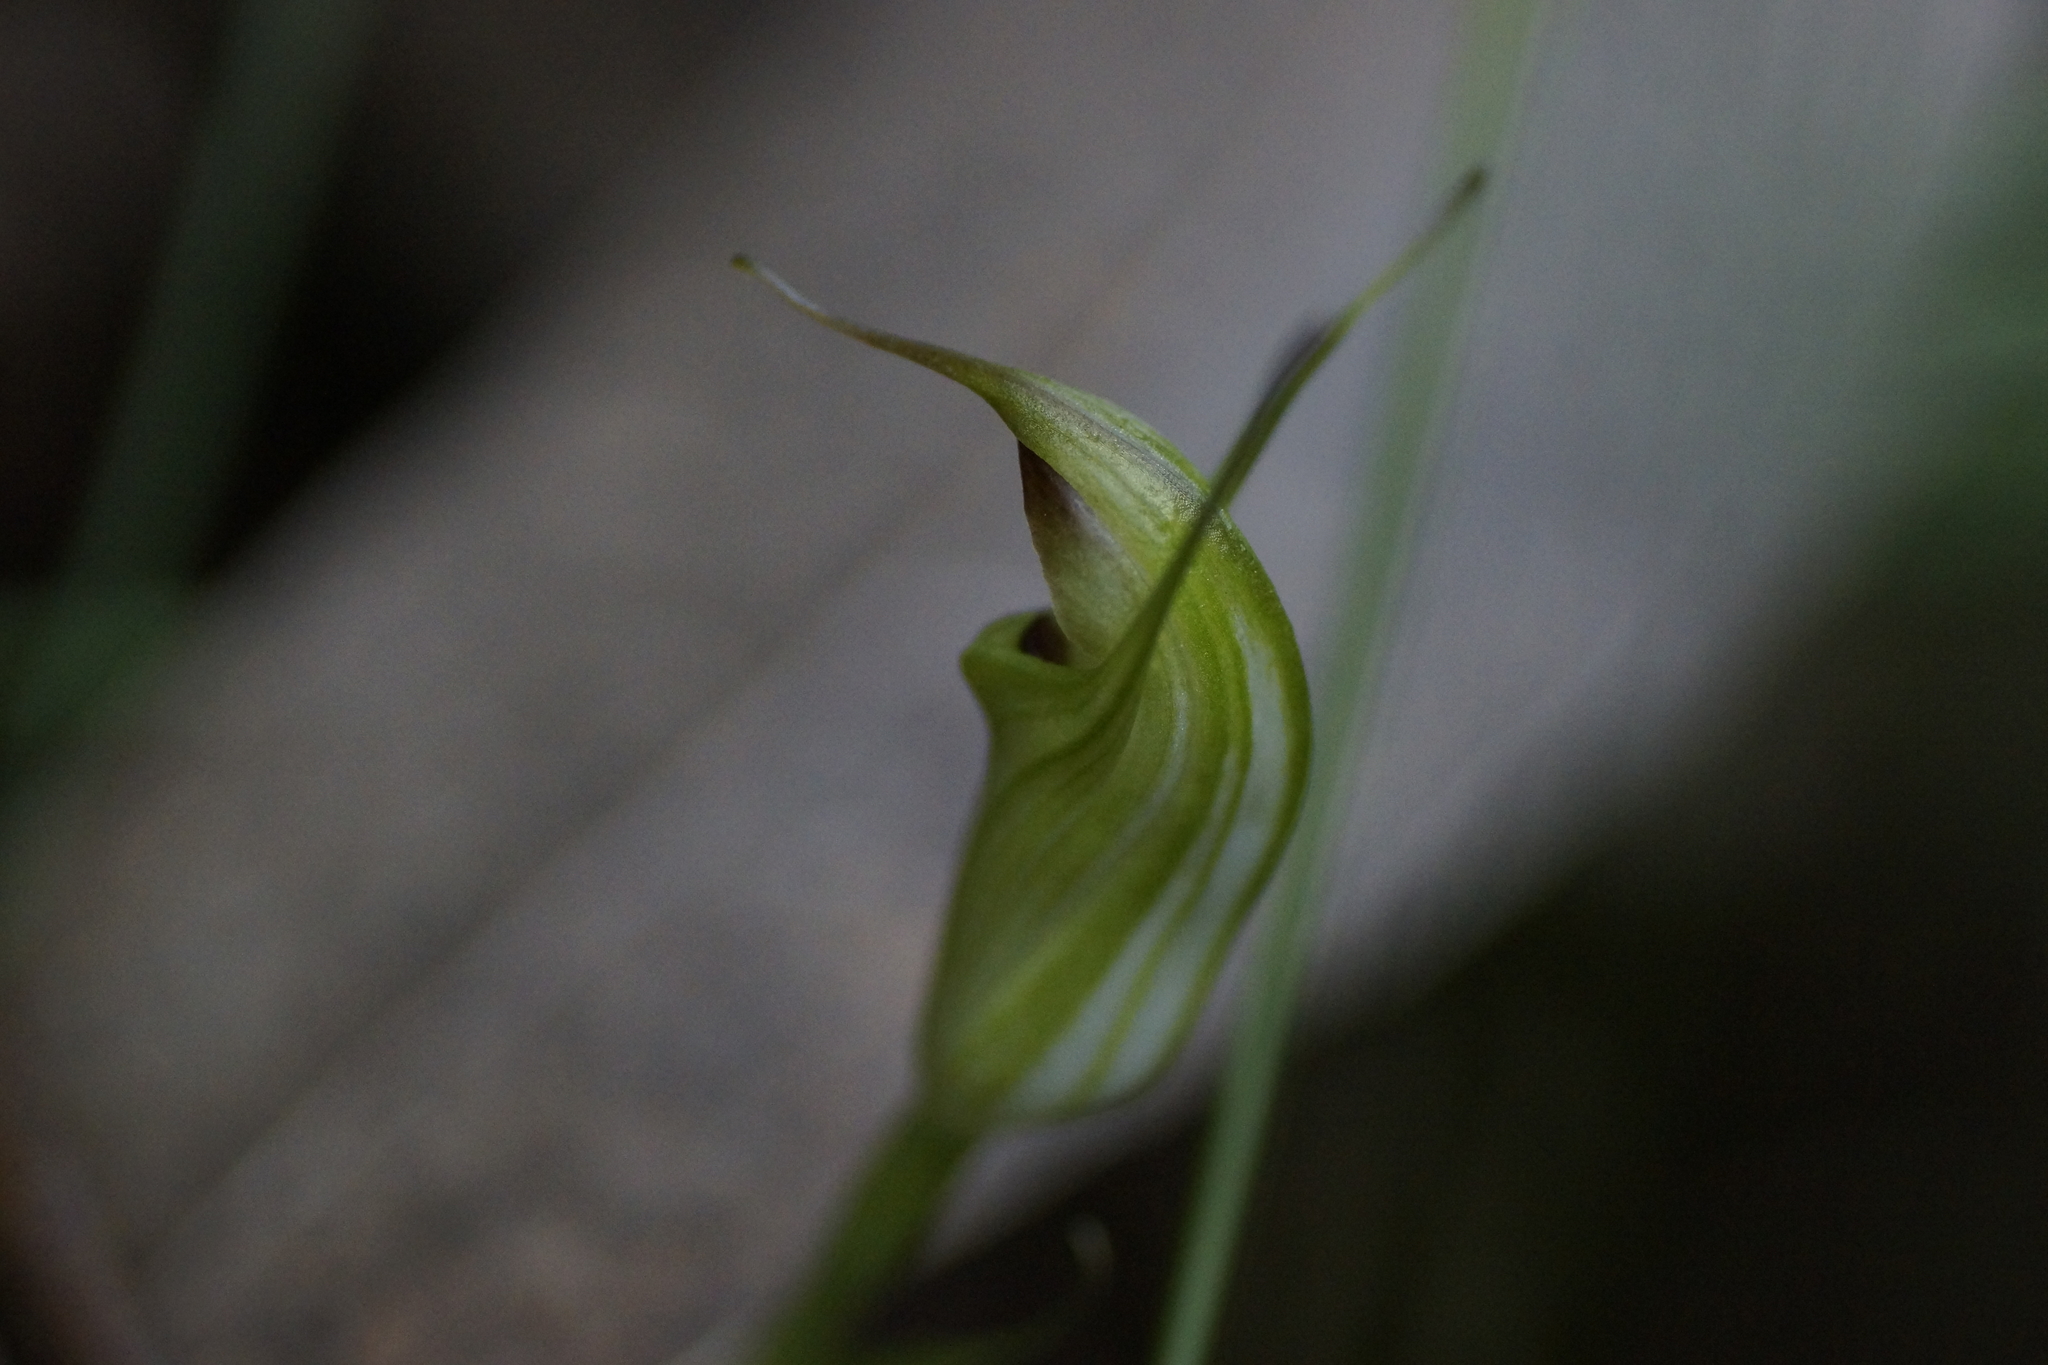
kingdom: Plantae
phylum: Tracheophyta
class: Liliopsida
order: Asparagales
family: Orchidaceae
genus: Pterostylis
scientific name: Pterostylis atrans
